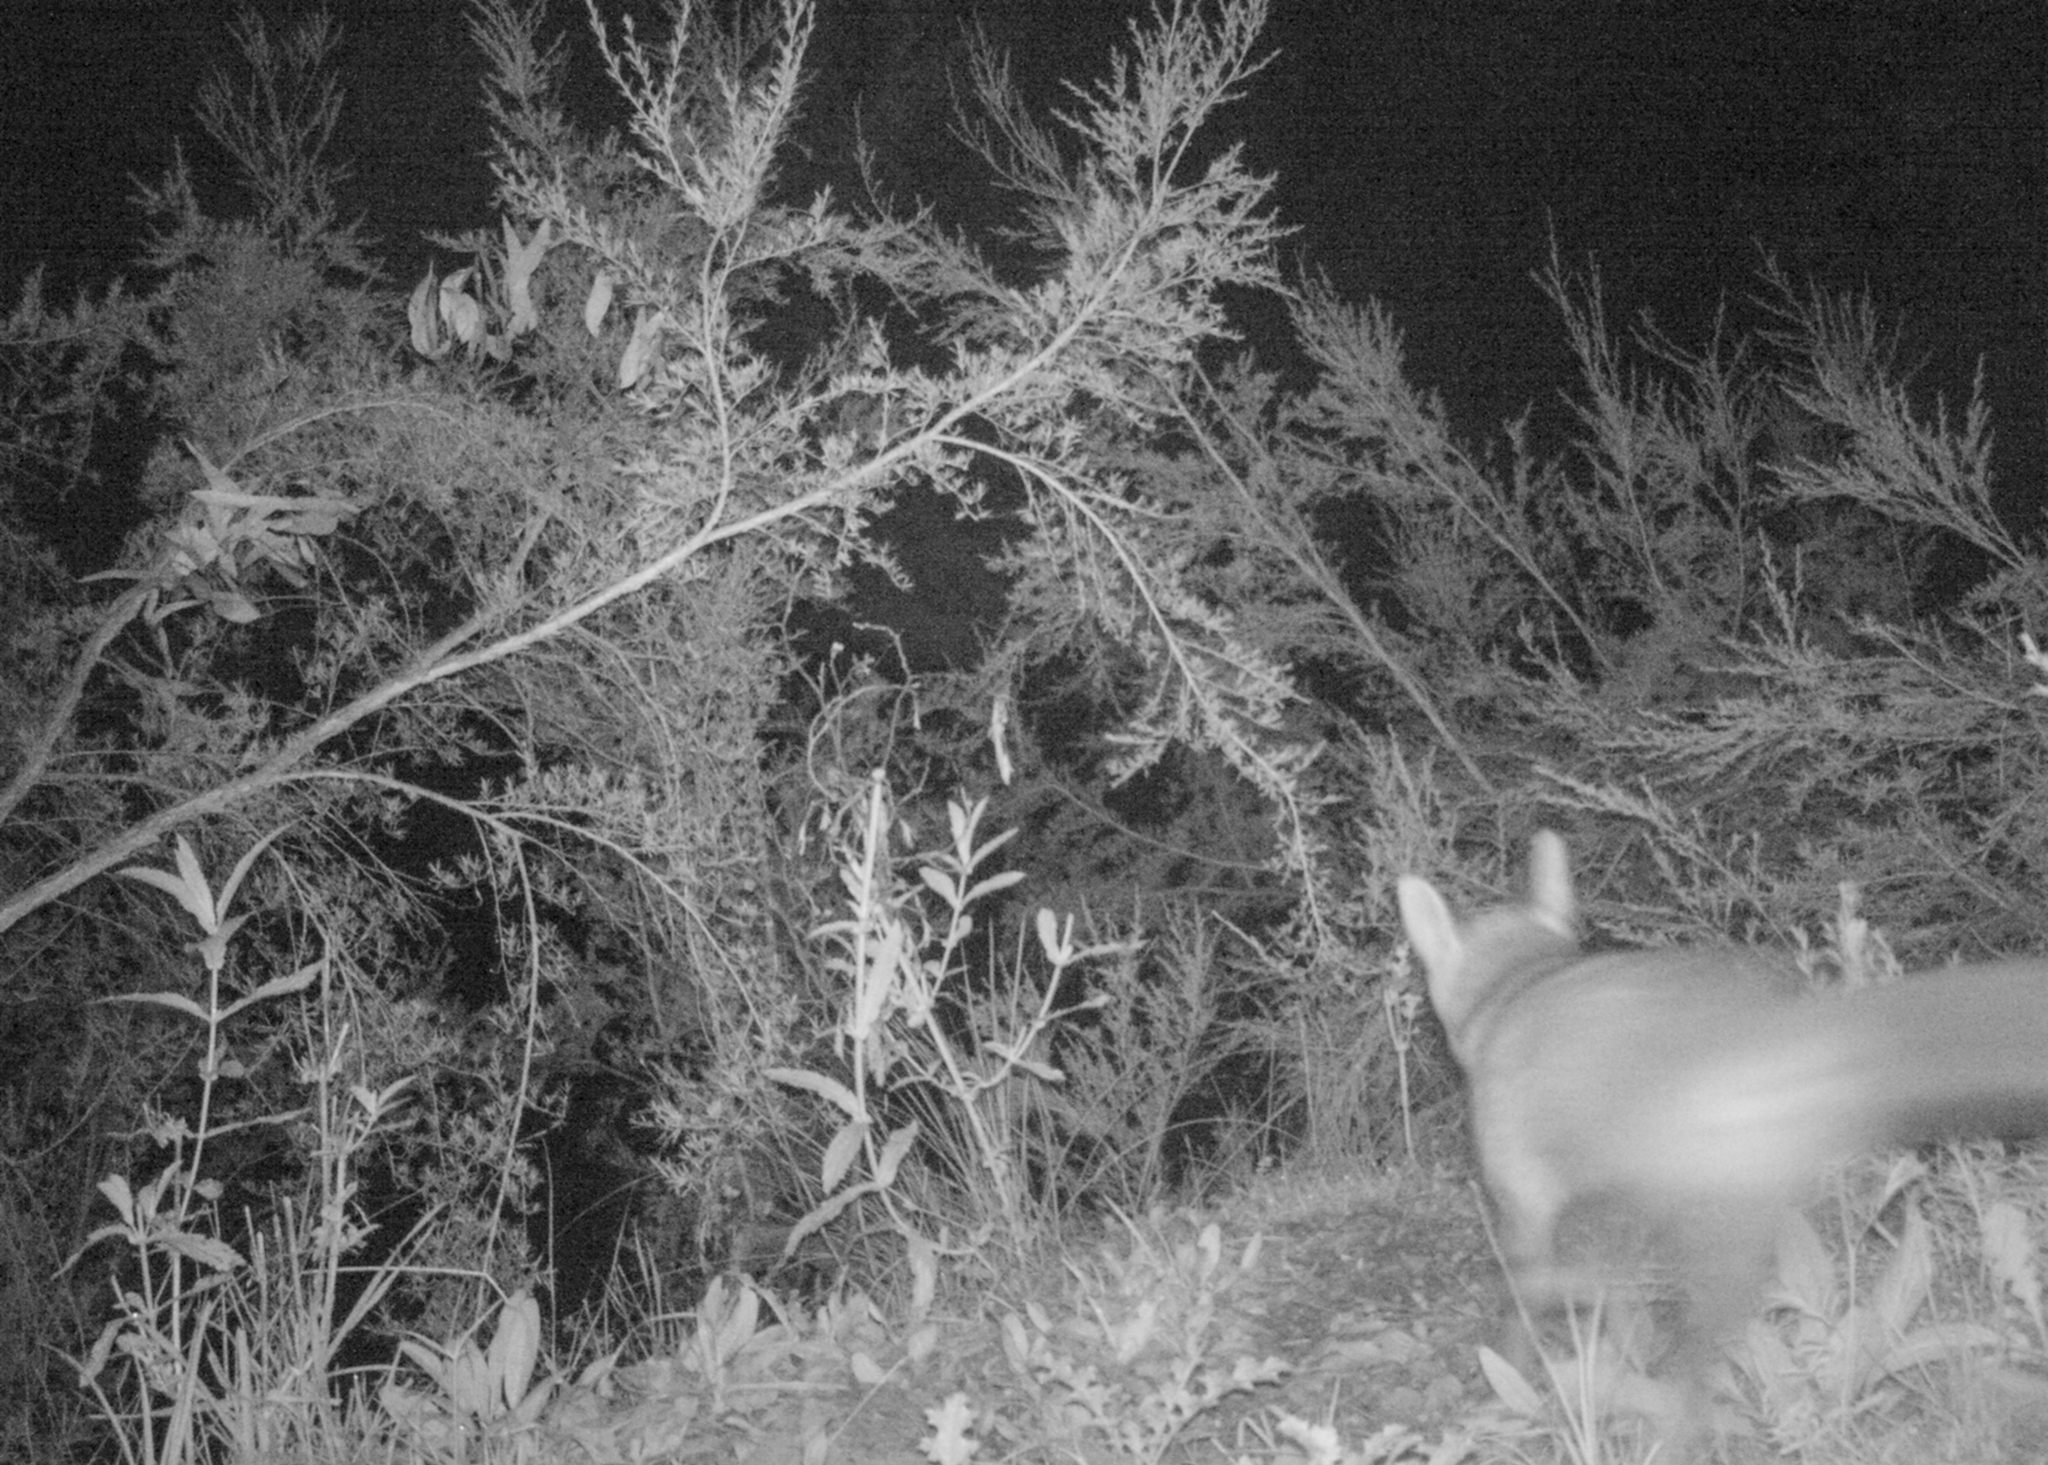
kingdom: Animalia
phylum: Chordata
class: Mammalia
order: Carnivora
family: Canidae
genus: Vulpes
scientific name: Vulpes vulpes
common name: Red fox
